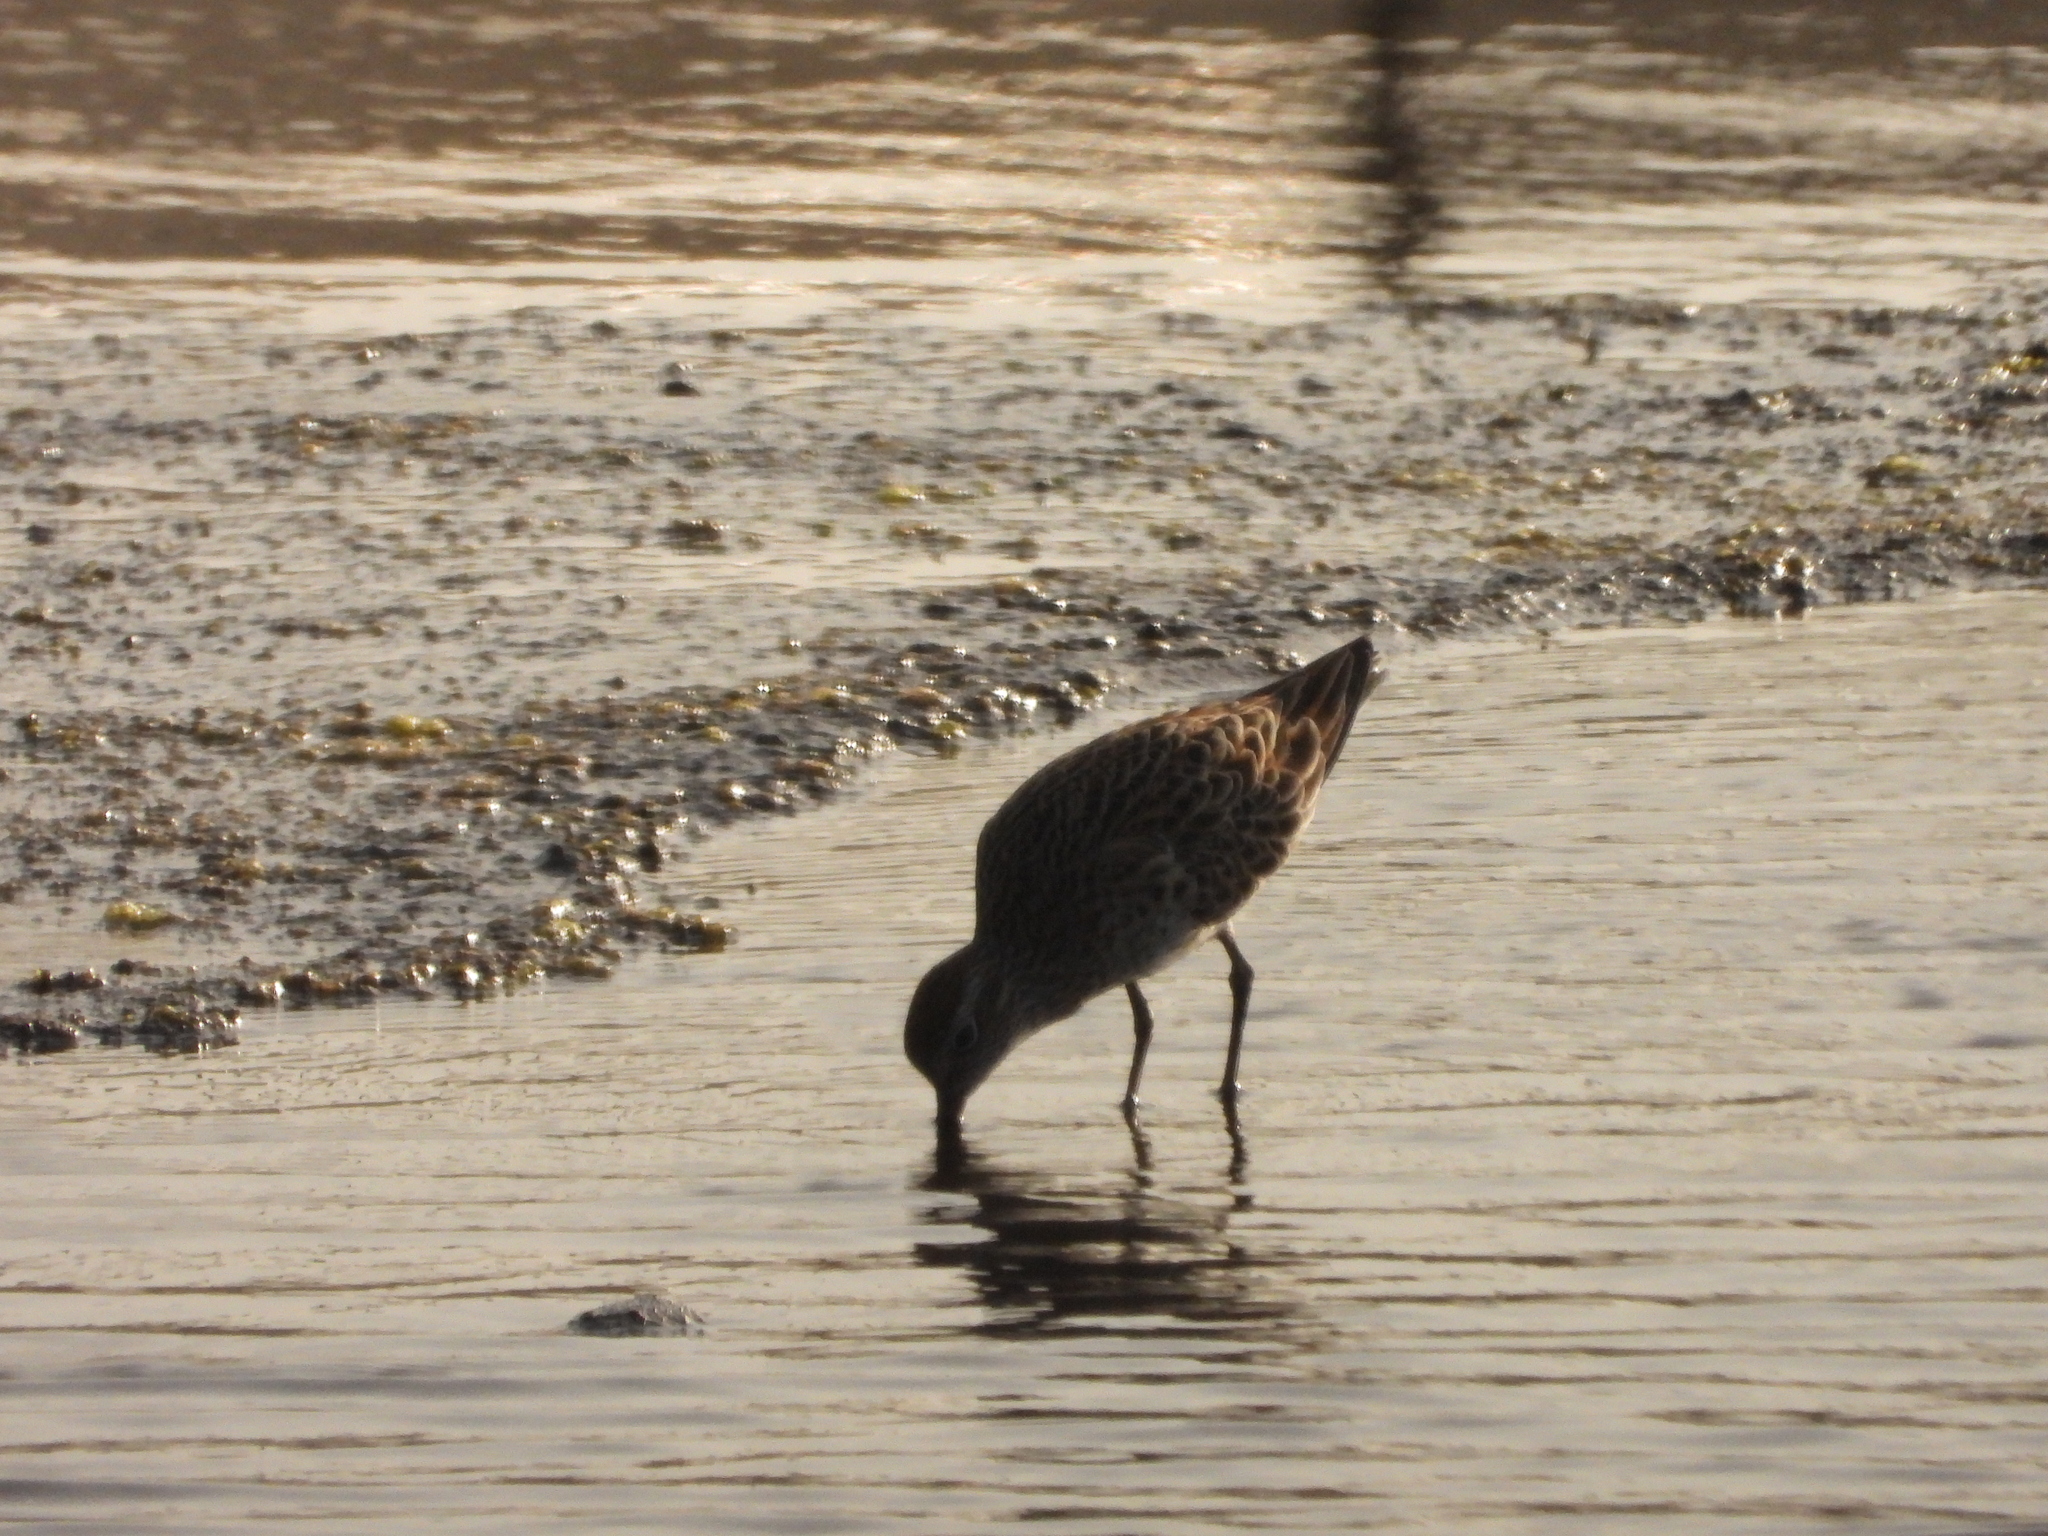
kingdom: Animalia
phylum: Chordata
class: Aves
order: Charadriiformes
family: Scolopacidae
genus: Calidris
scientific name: Calidris acuminata
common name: Sharp-tailed sandpiper
